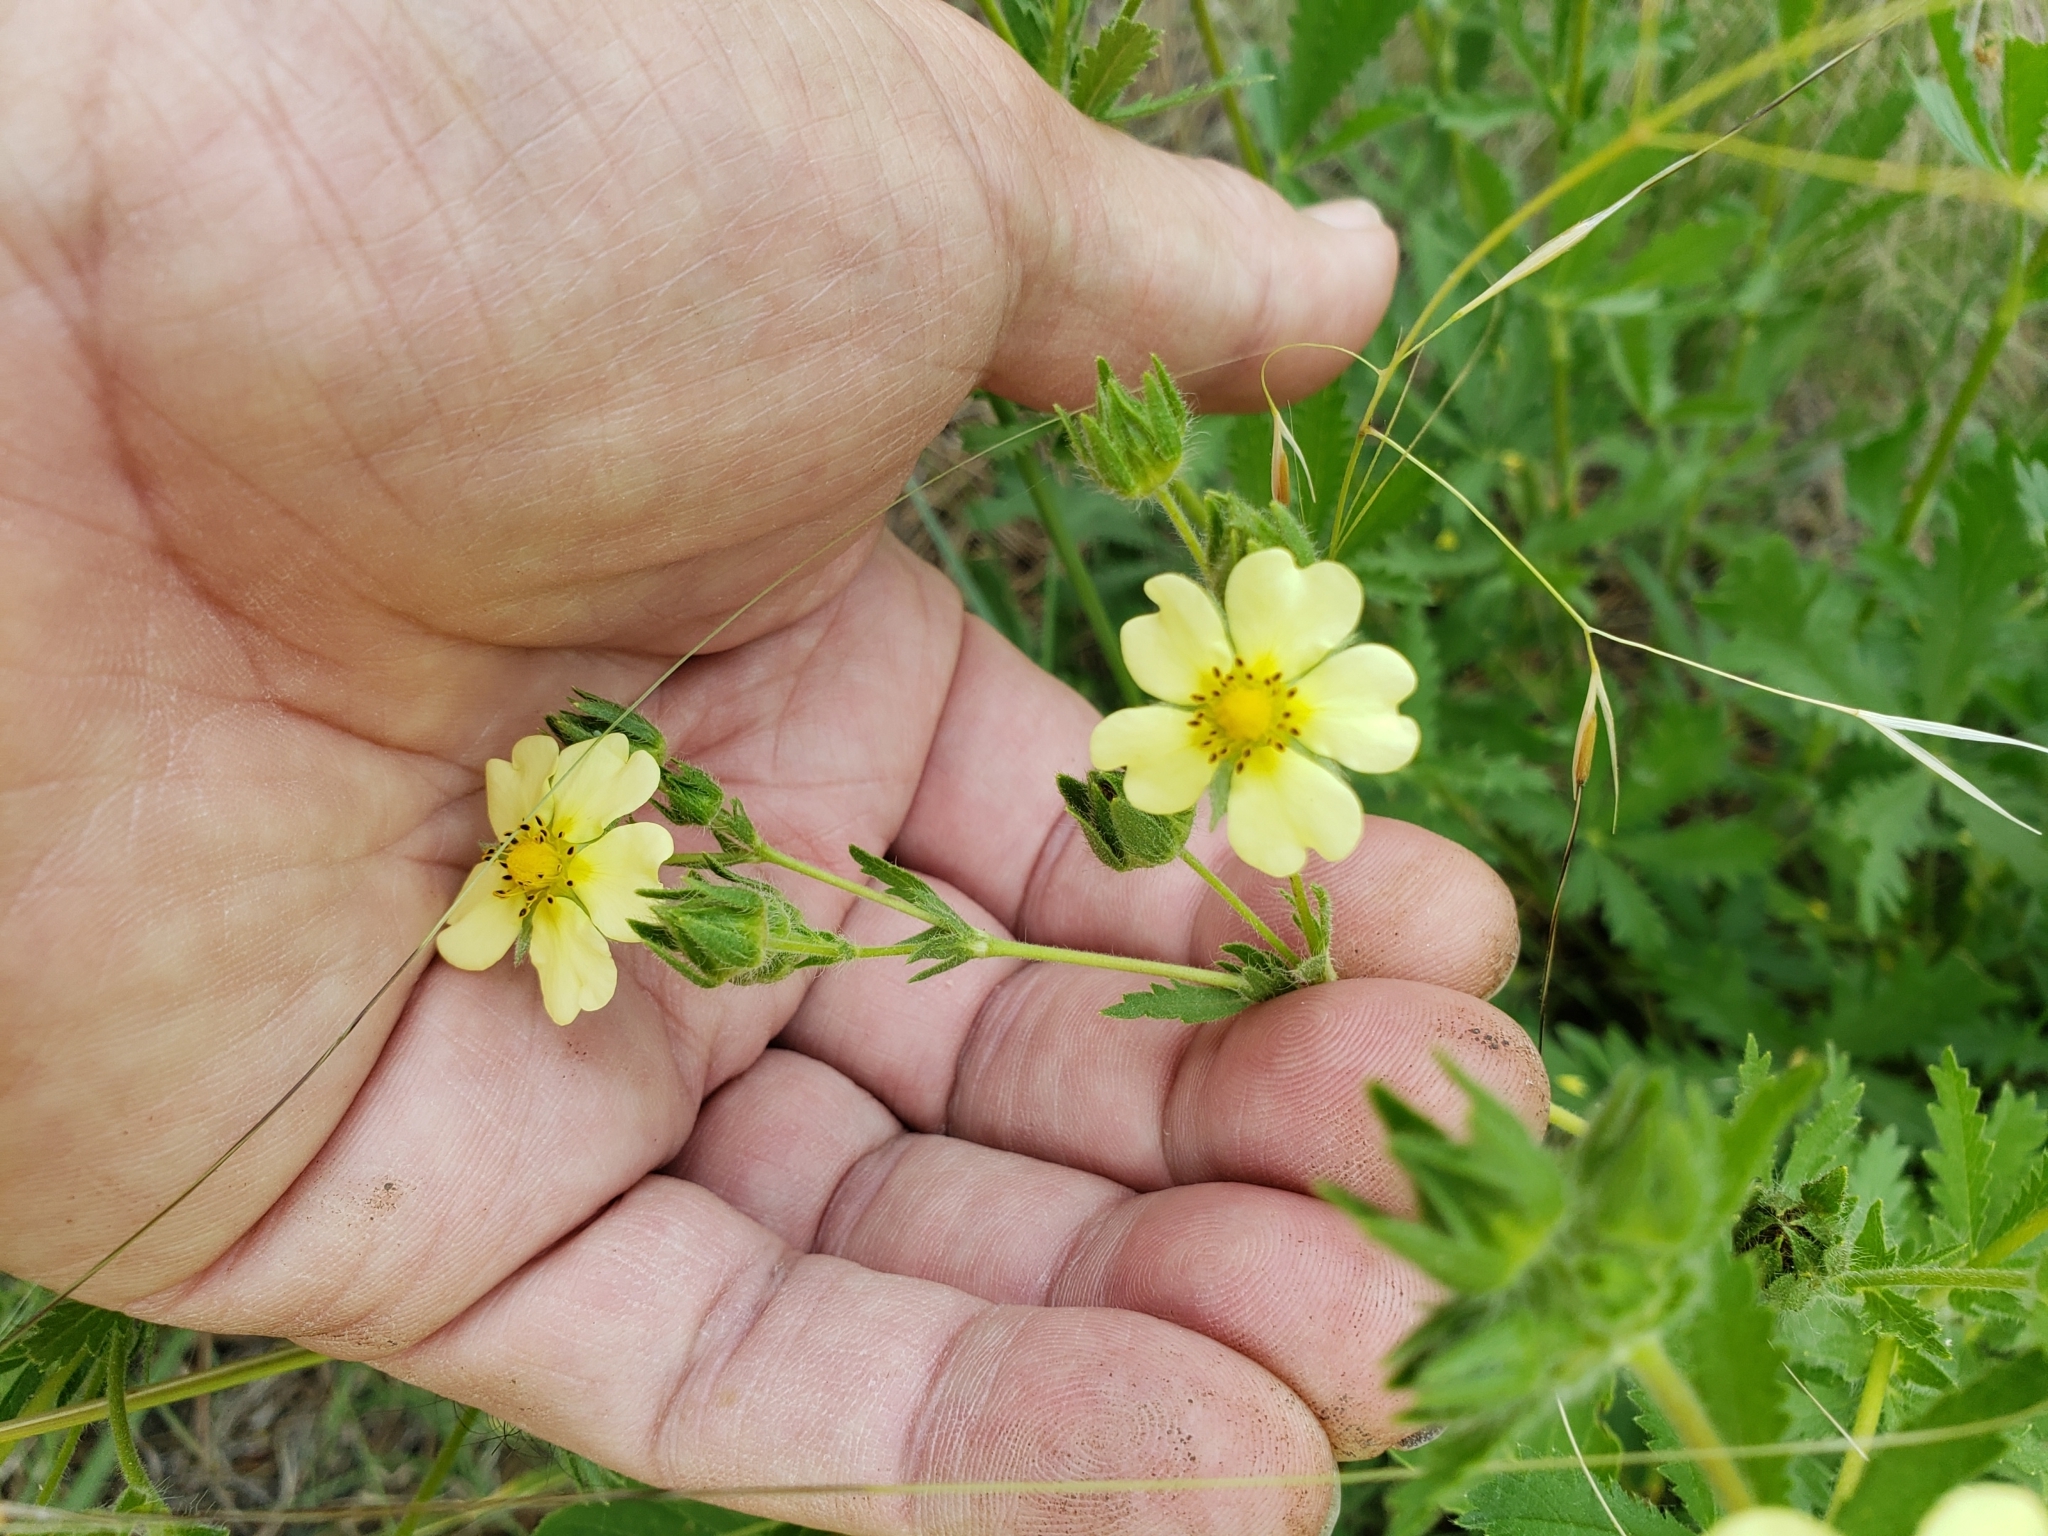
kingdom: Plantae
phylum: Tracheophyta
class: Magnoliopsida
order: Rosales
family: Rosaceae
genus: Potentilla
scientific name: Potentilla recta
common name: Sulphur cinquefoil
